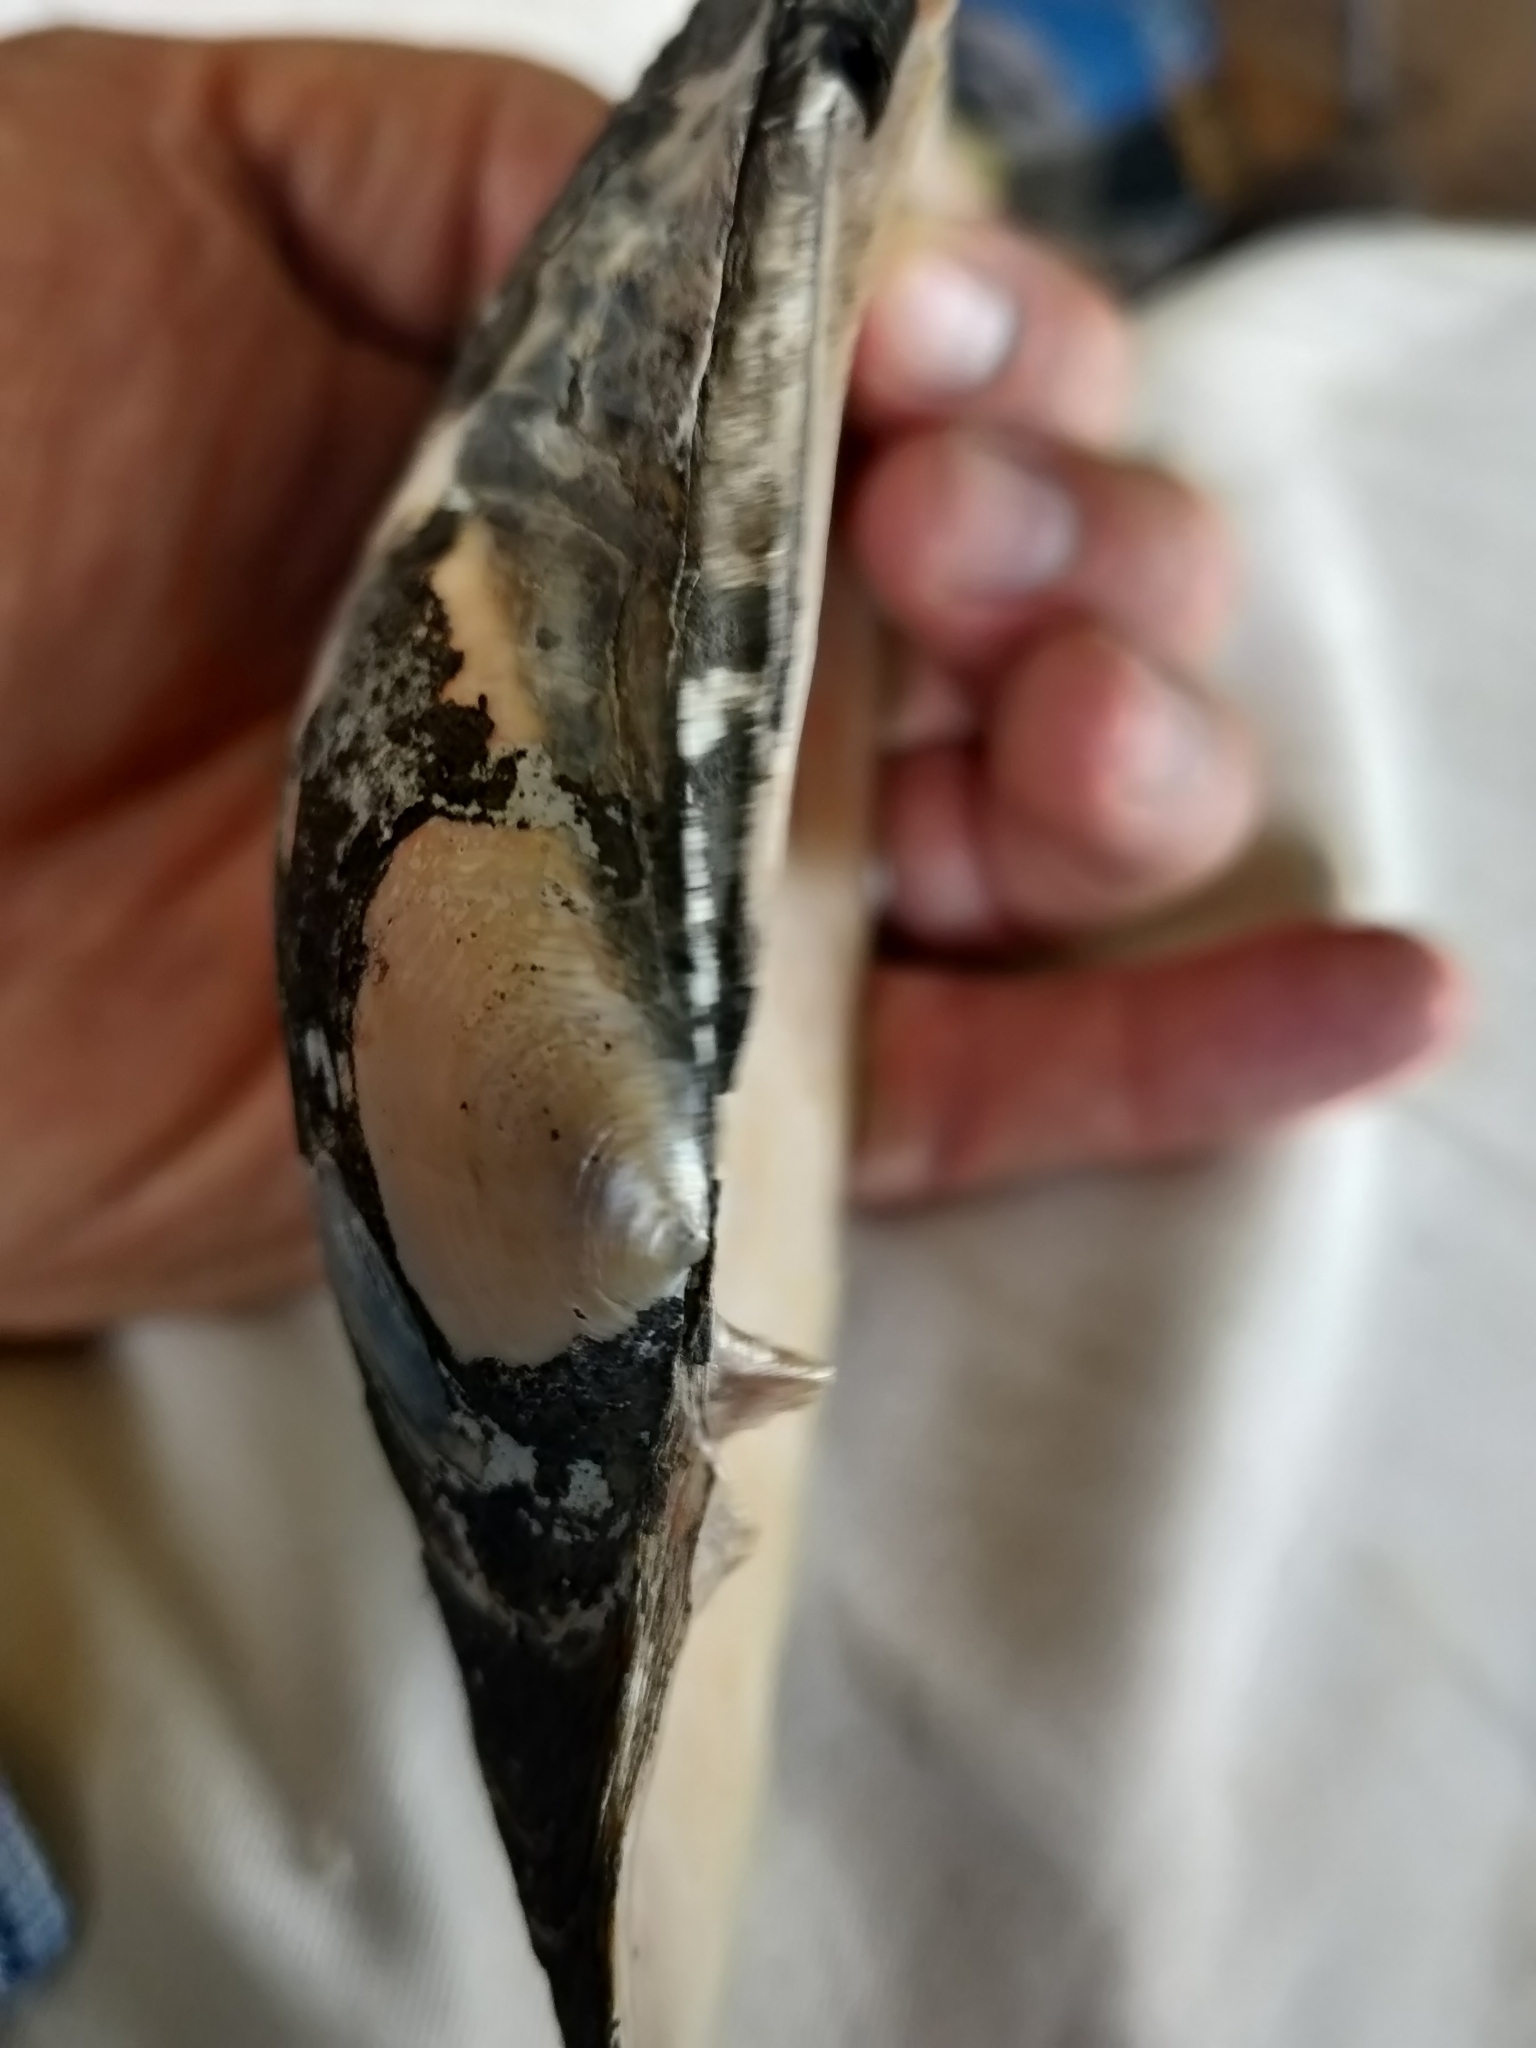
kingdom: Animalia
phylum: Mollusca
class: Bivalvia
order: Unionida
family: Unionidae
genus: Potamilus
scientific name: Potamilus alatus
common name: Pink heelsplitter
